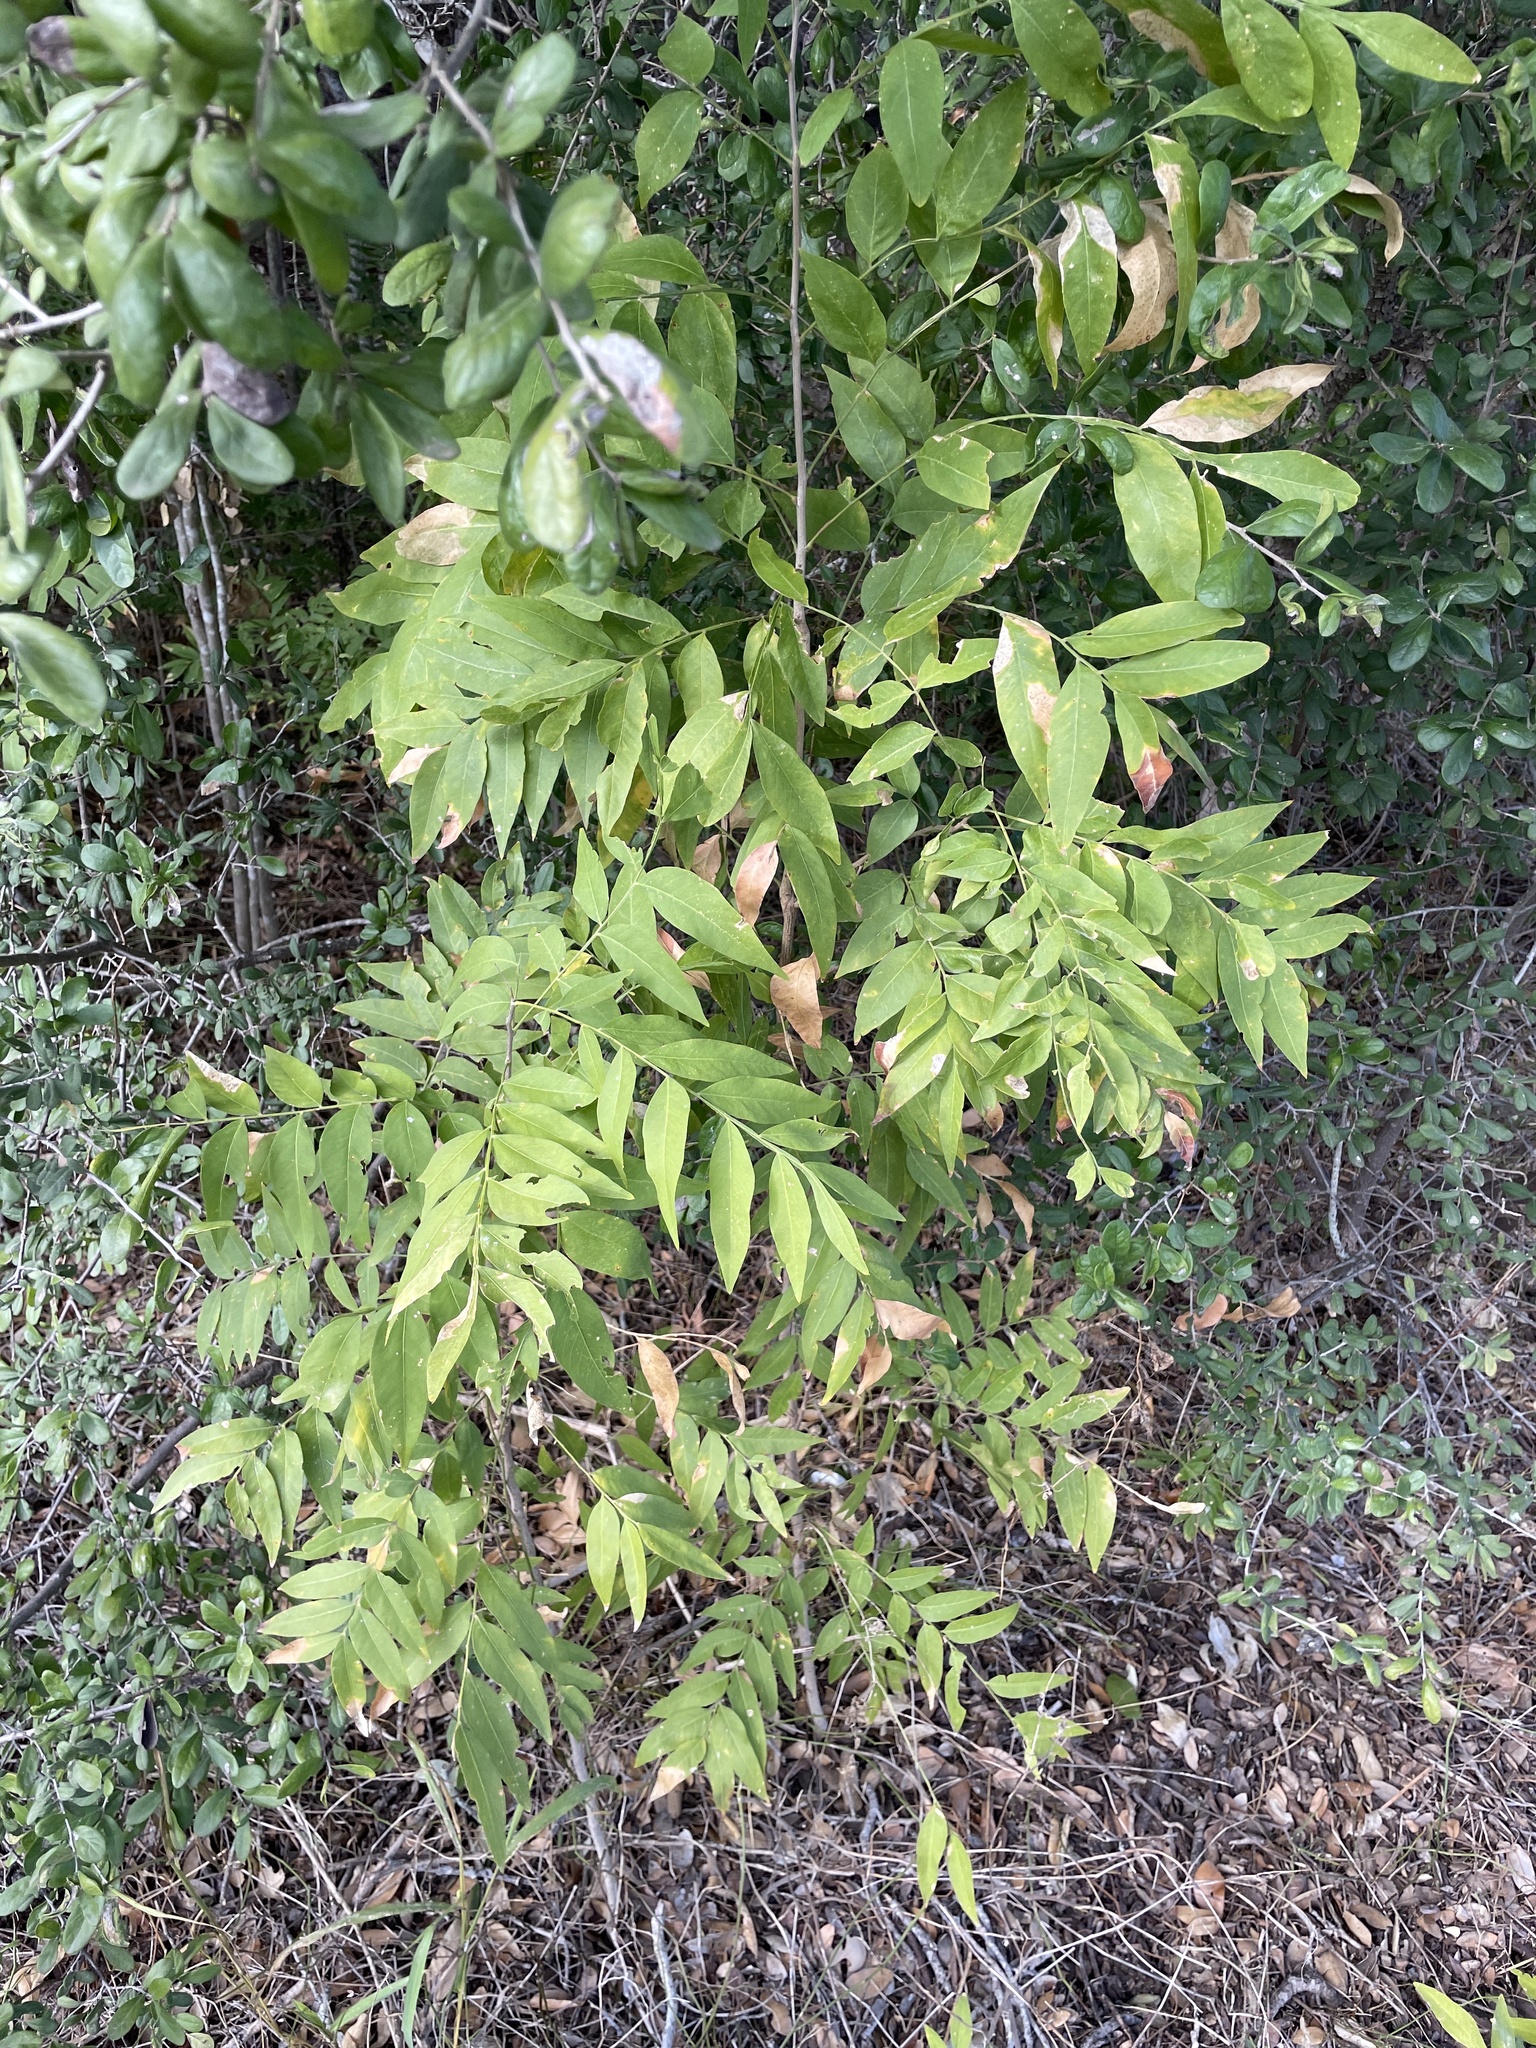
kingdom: Plantae
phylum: Tracheophyta
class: Magnoliopsida
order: Sapindales
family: Sapindaceae
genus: Sapindus
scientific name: Sapindus drummondii
